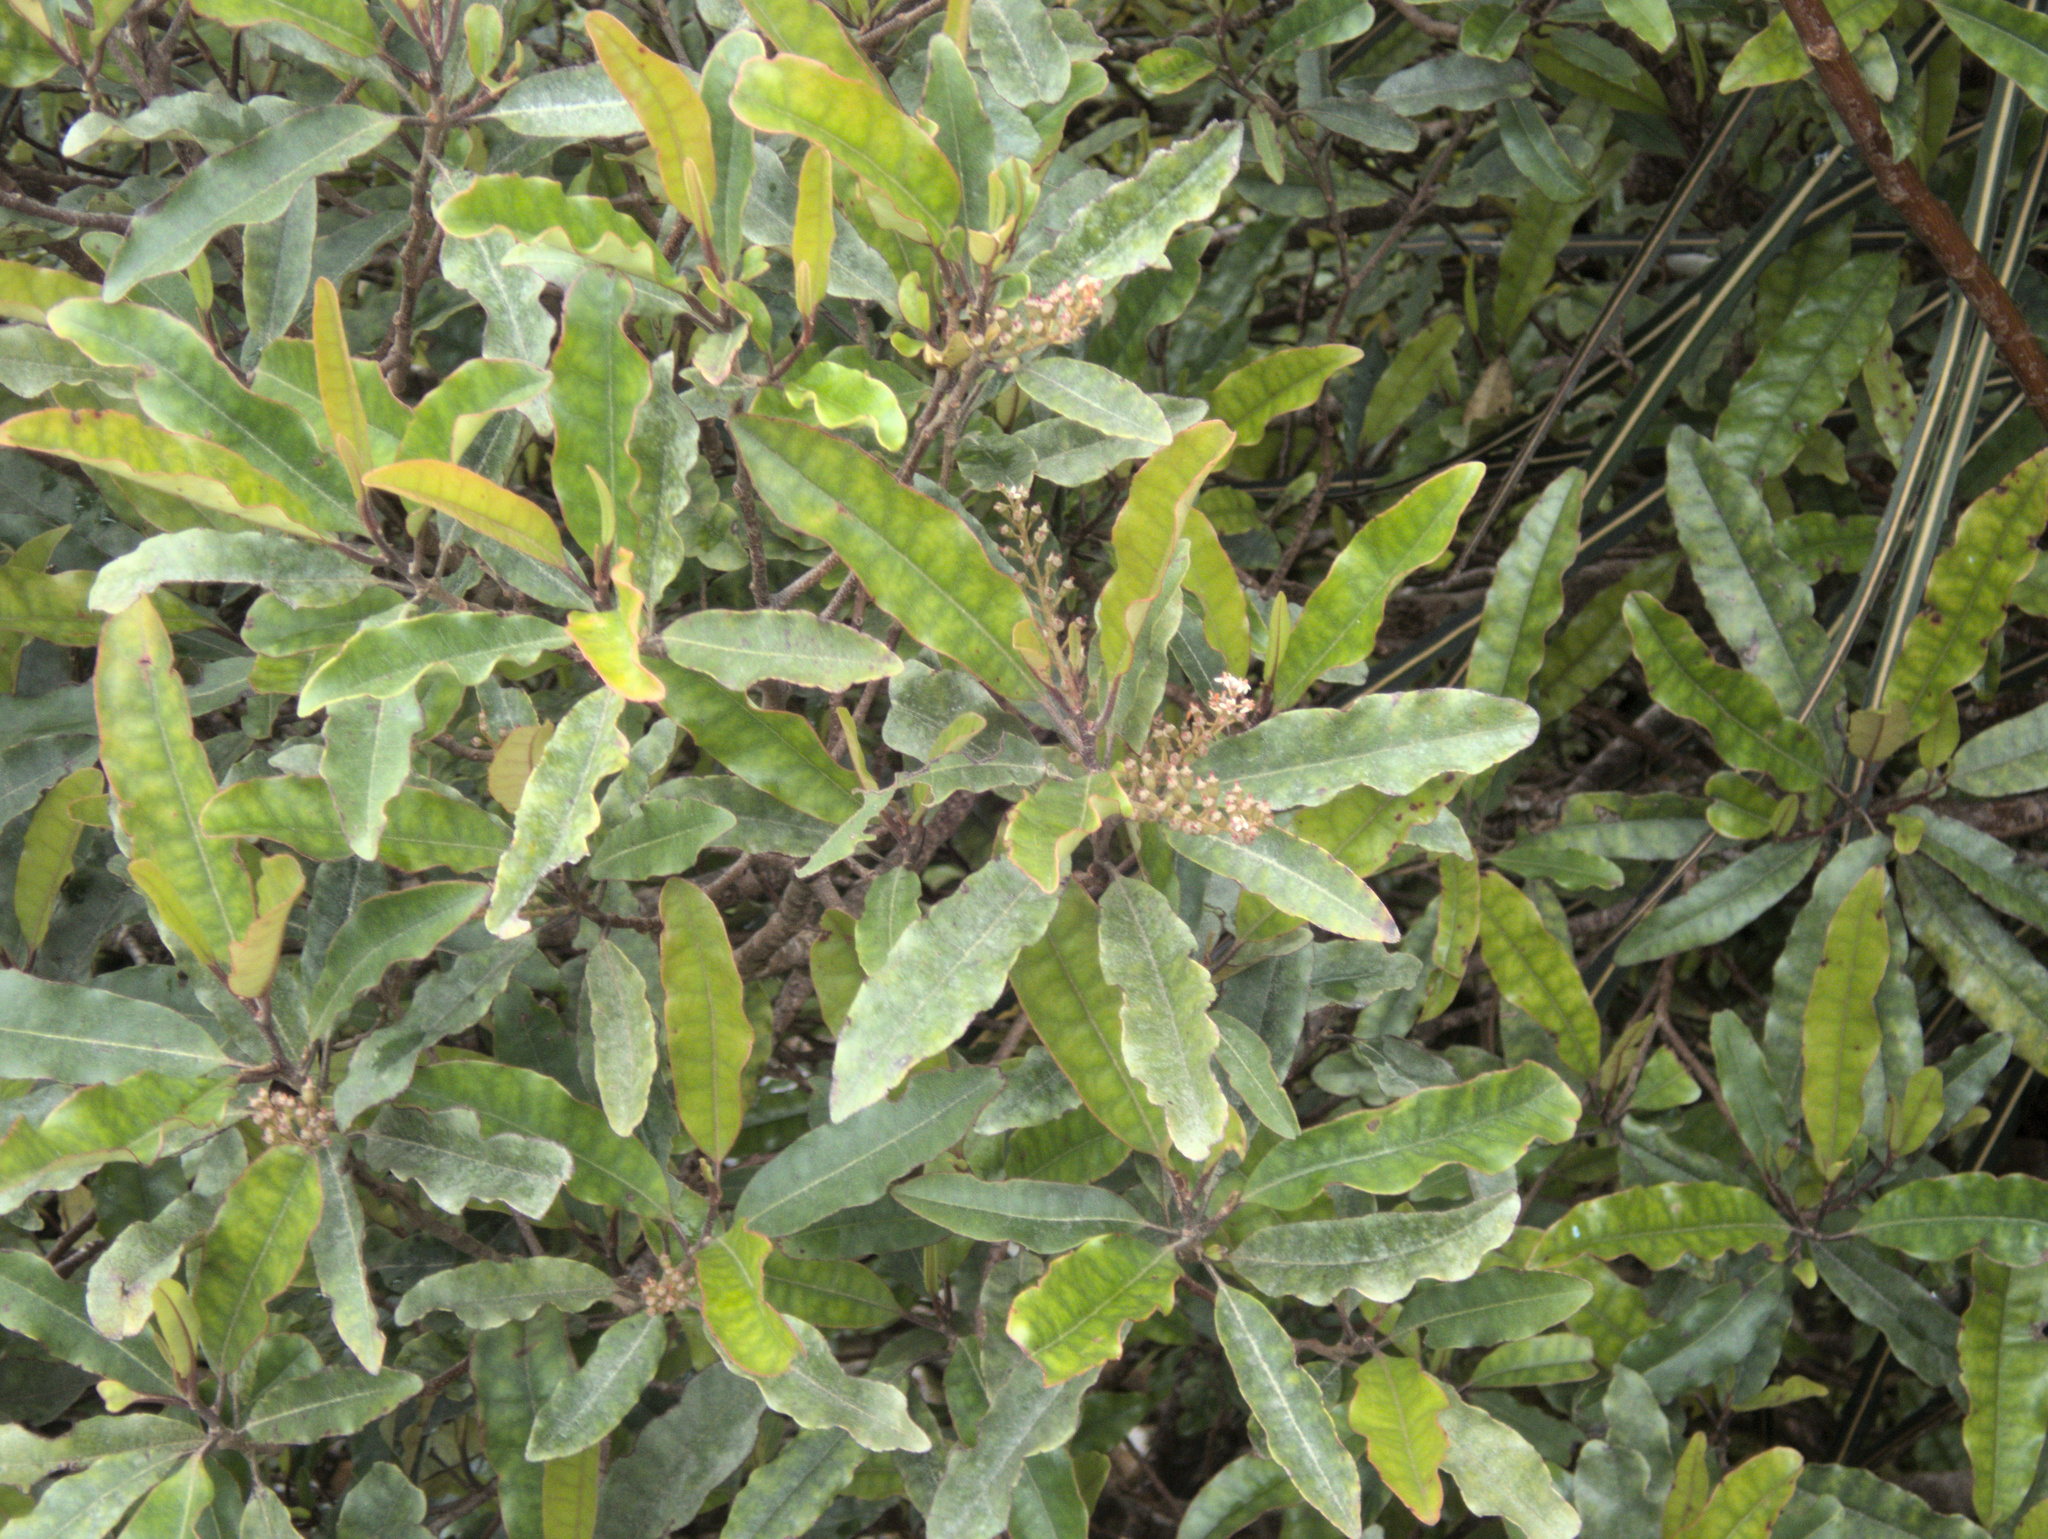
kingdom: Plantae
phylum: Tracheophyta
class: Magnoliopsida
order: Paracryphiales
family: Paracryphiaceae
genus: Quintinia
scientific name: Quintinia serrata
